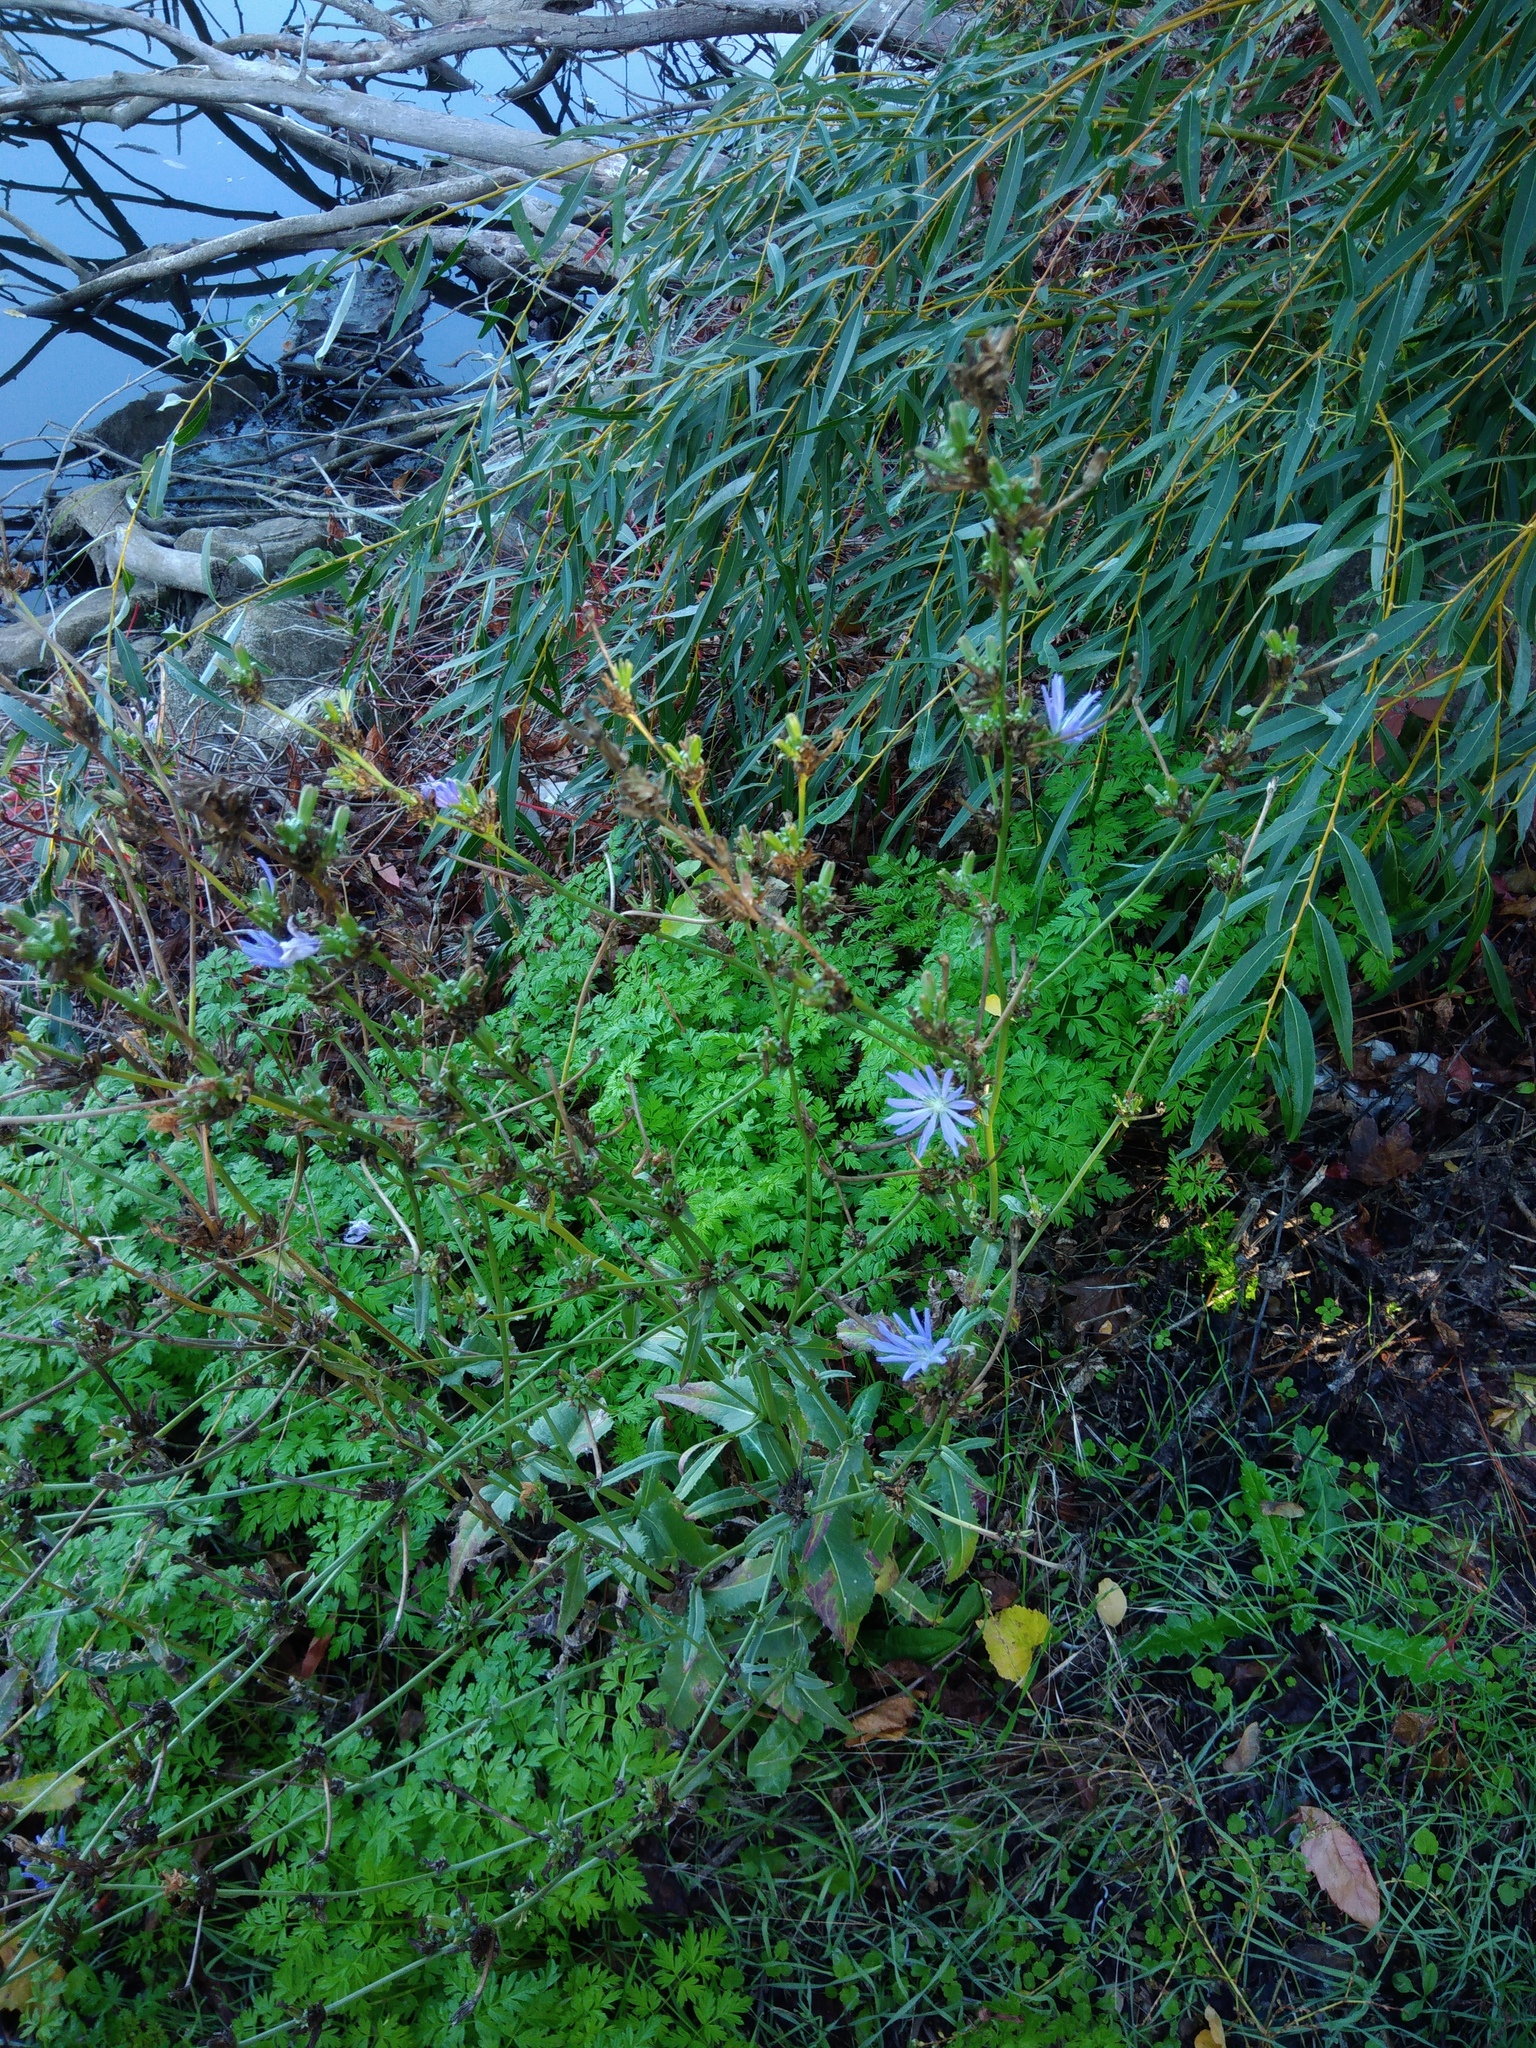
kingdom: Plantae
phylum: Tracheophyta
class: Magnoliopsida
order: Asterales
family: Asteraceae
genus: Cichorium
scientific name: Cichorium intybus
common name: Chicory
